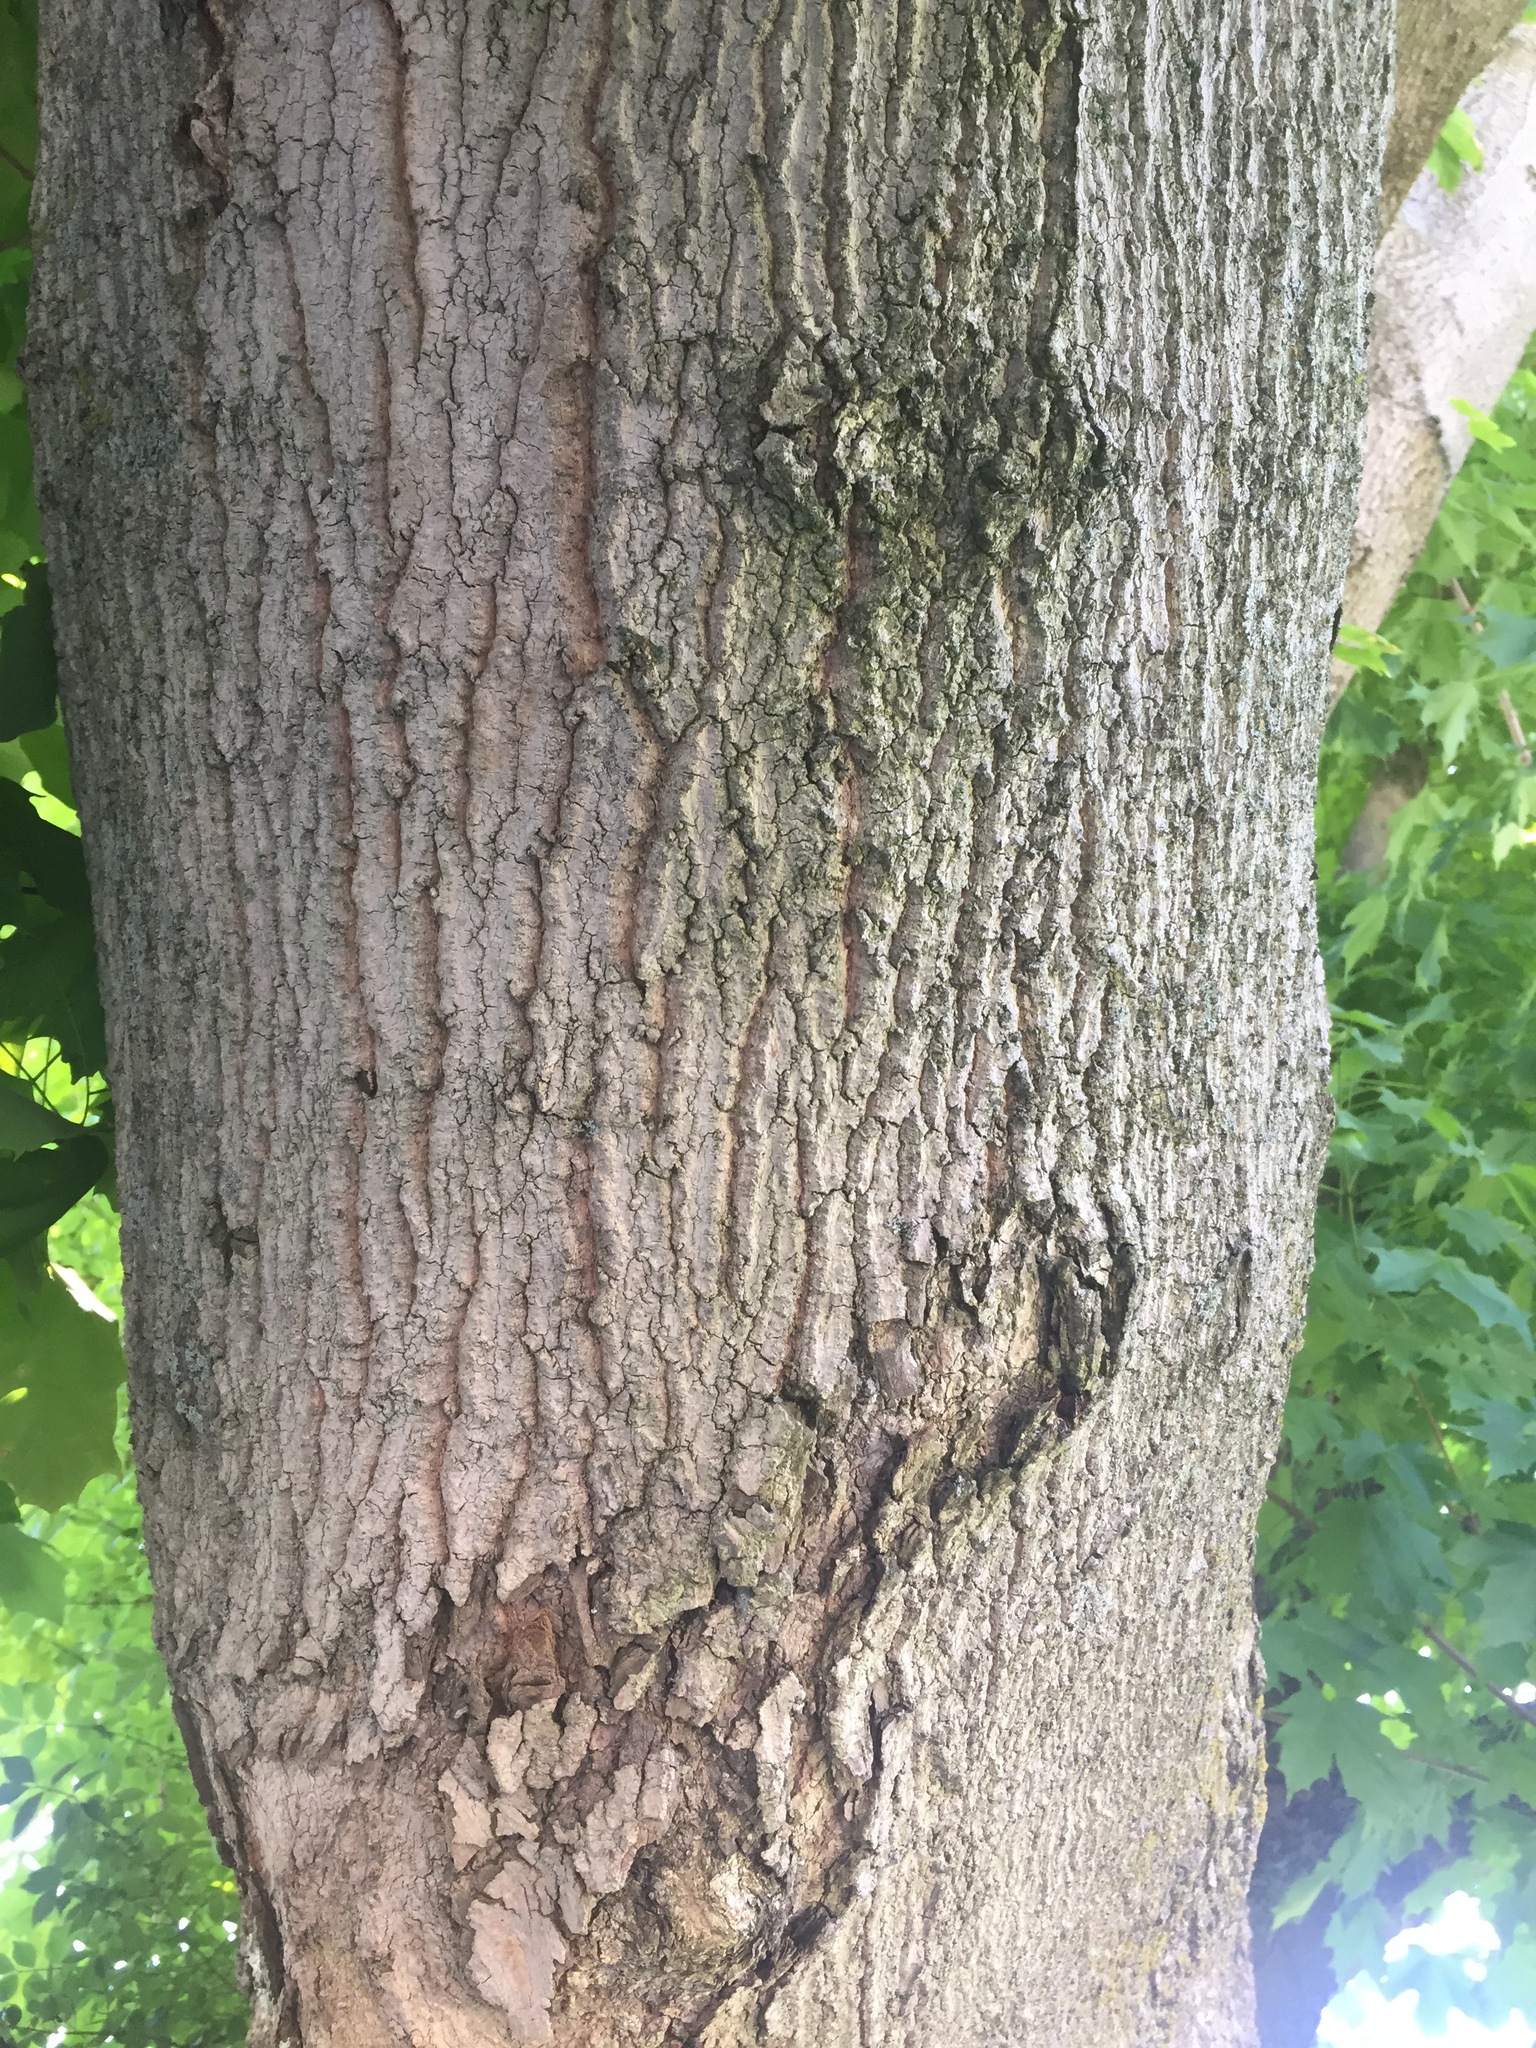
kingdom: Plantae
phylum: Tracheophyta
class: Magnoliopsida
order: Sapindales
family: Sapindaceae
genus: Acer
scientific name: Acer saccharum
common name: Sugar maple
